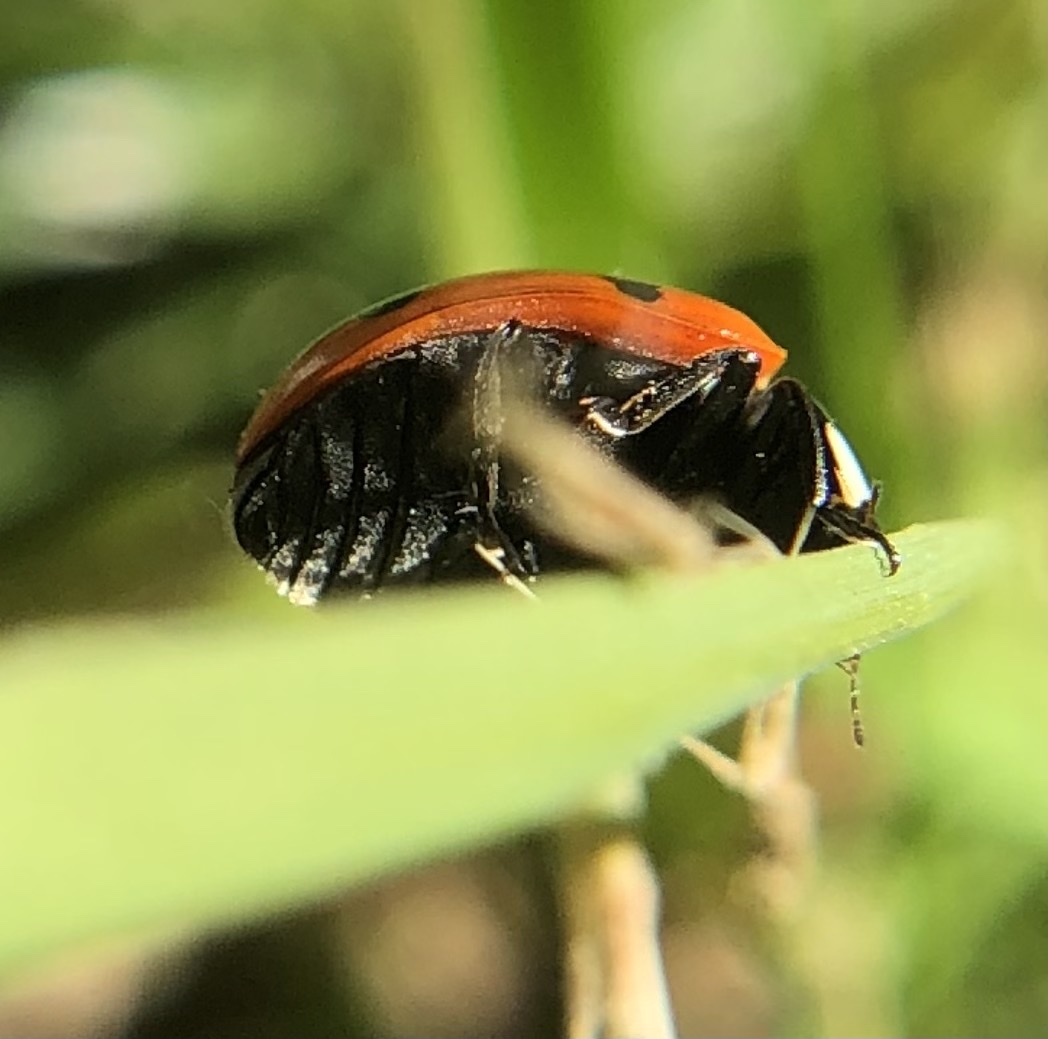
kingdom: Animalia
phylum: Arthropoda
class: Insecta
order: Coleoptera
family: Coccinellidae
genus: Coccinella
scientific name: Coccinella septempunctata
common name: Sevenspotted lady beetle
